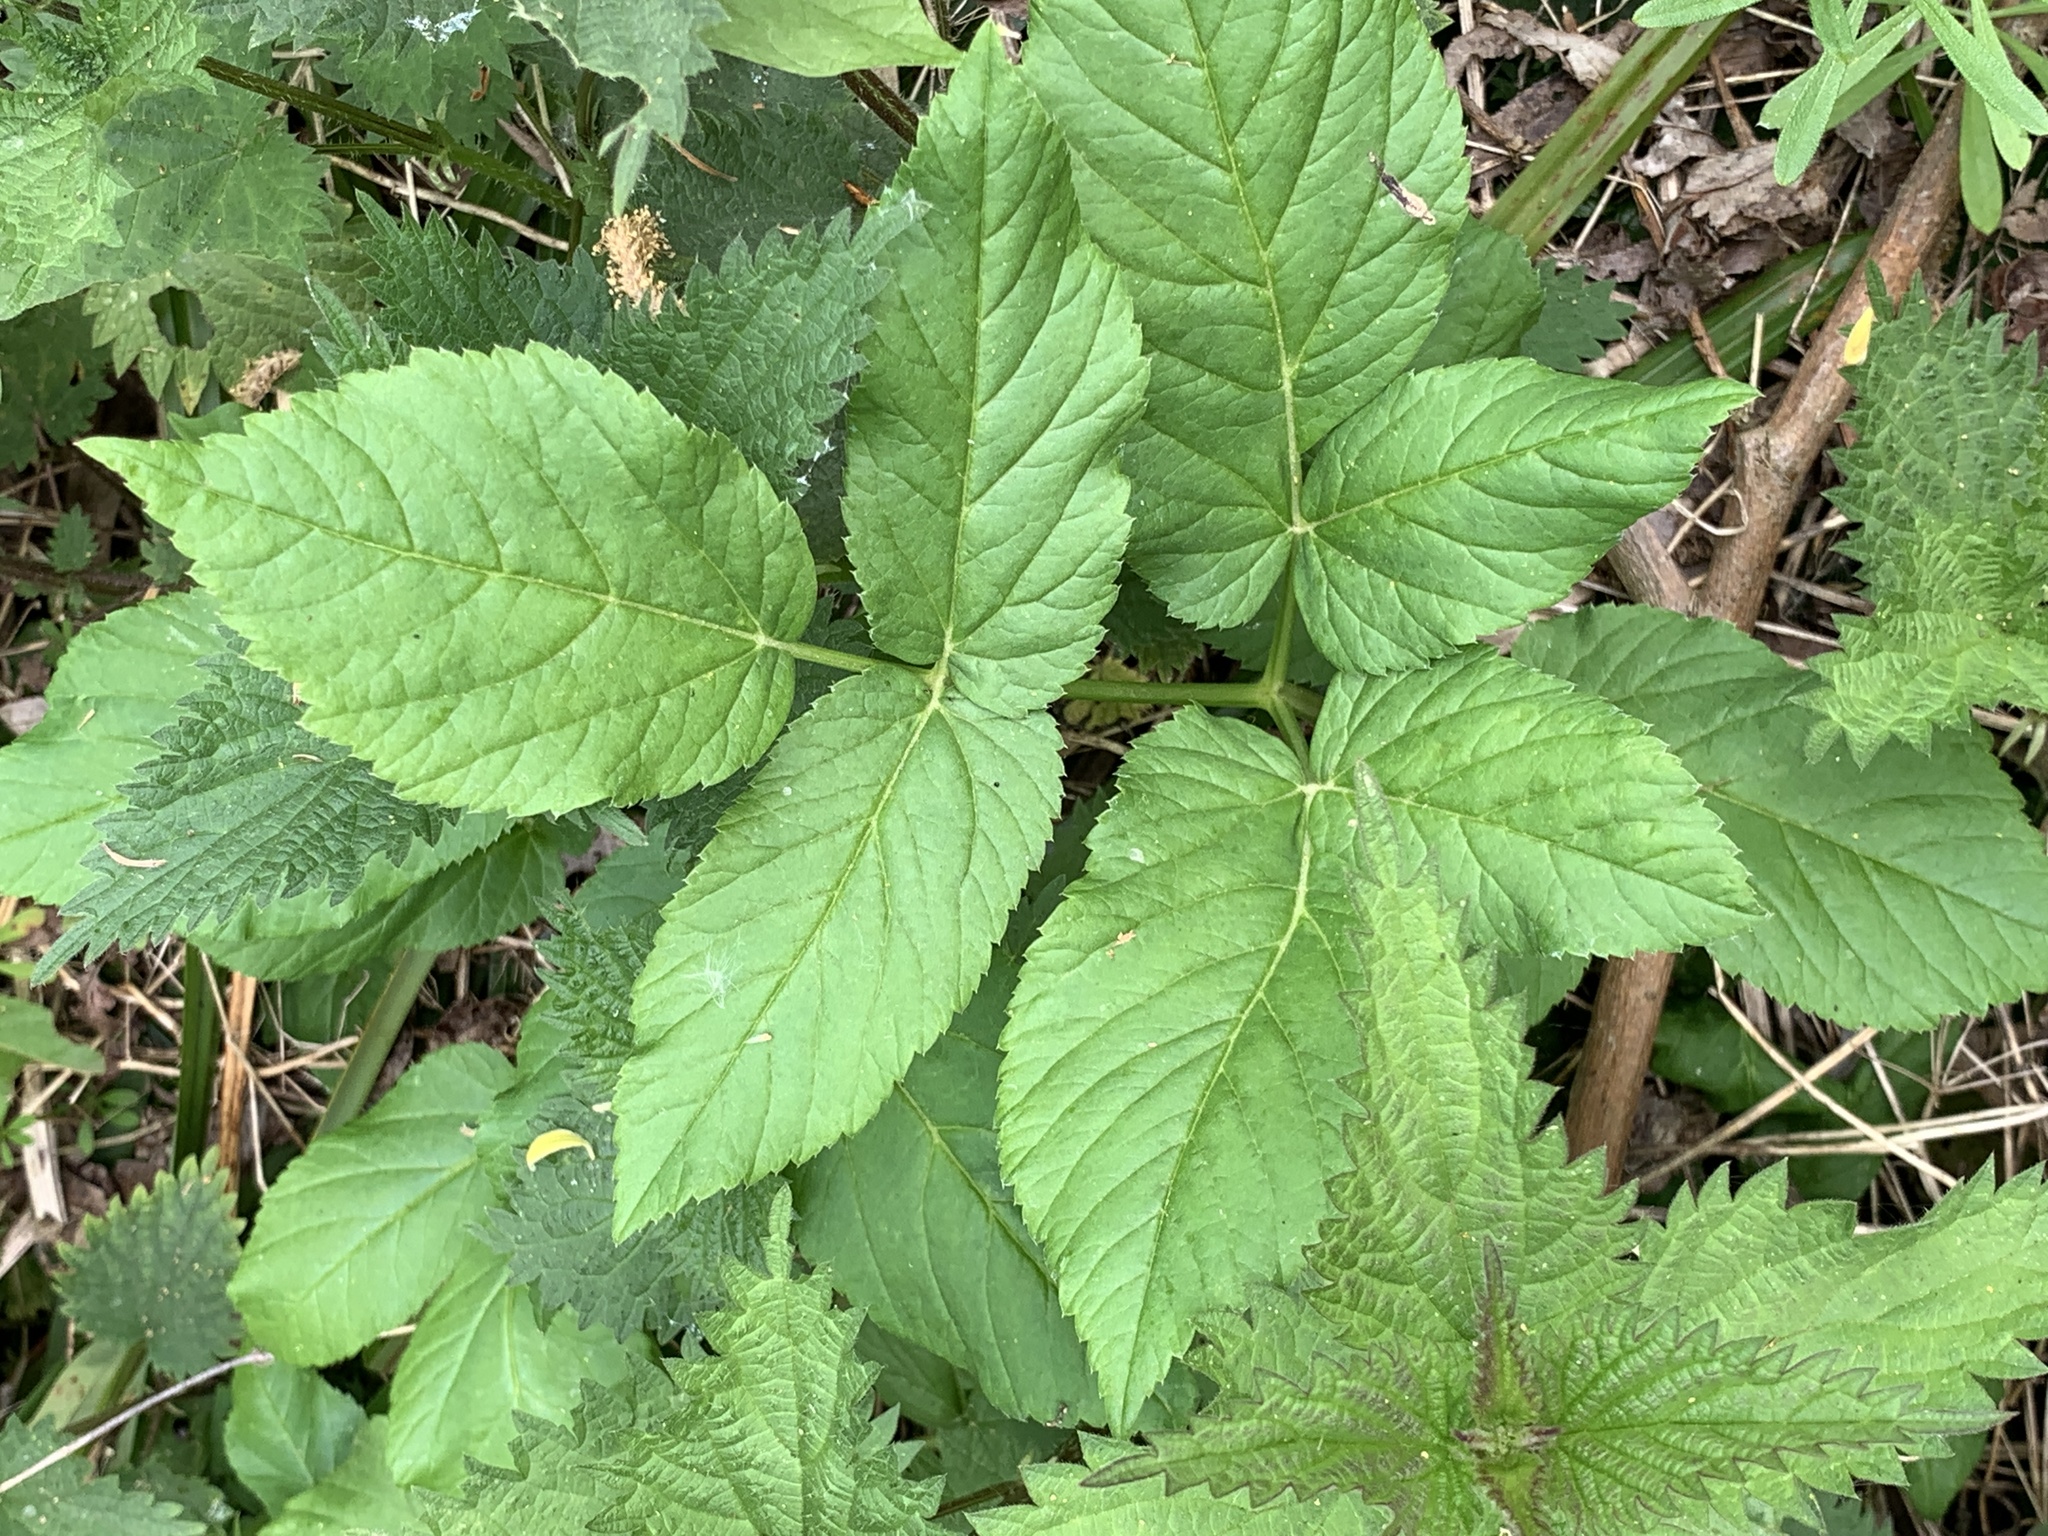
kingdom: Plantae
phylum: Tracheophyta
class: Magnoliopsida
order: Apiales
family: Apiaceae
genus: Aegopodium
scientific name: Aegopodium podagraria
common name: Ground-elder
